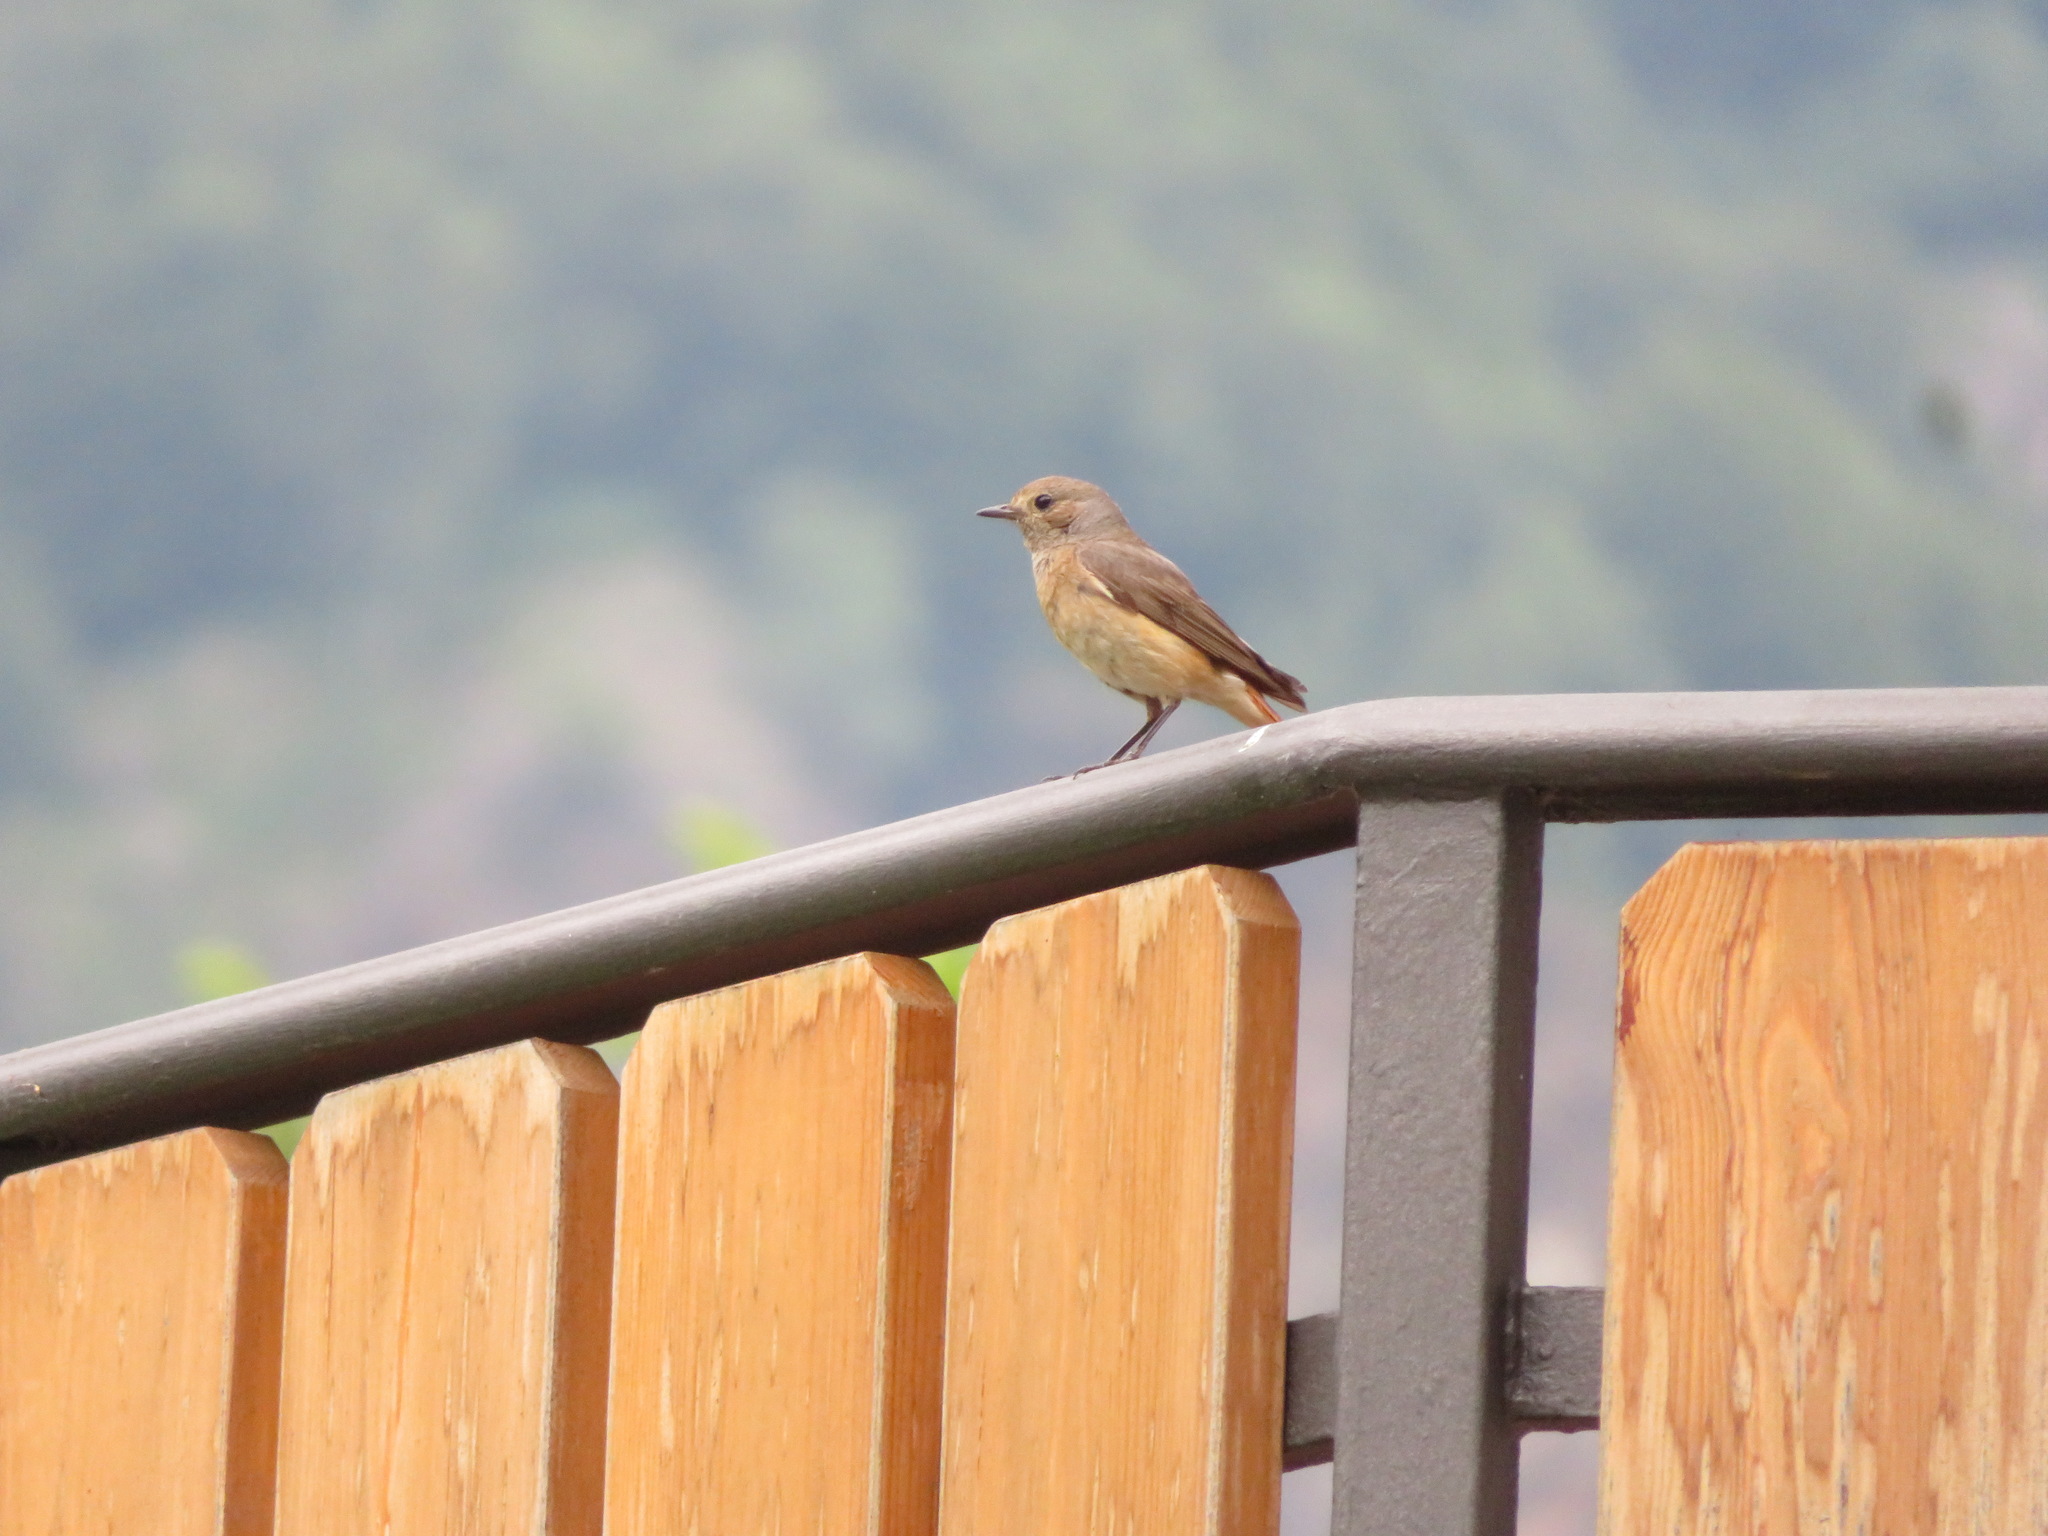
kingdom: Animalia
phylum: Chordata
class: Aves
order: Passeriformes
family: Muscicapidae
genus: Phoenicurus
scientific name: Phoenicurus phoenicurus
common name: Common redstart
